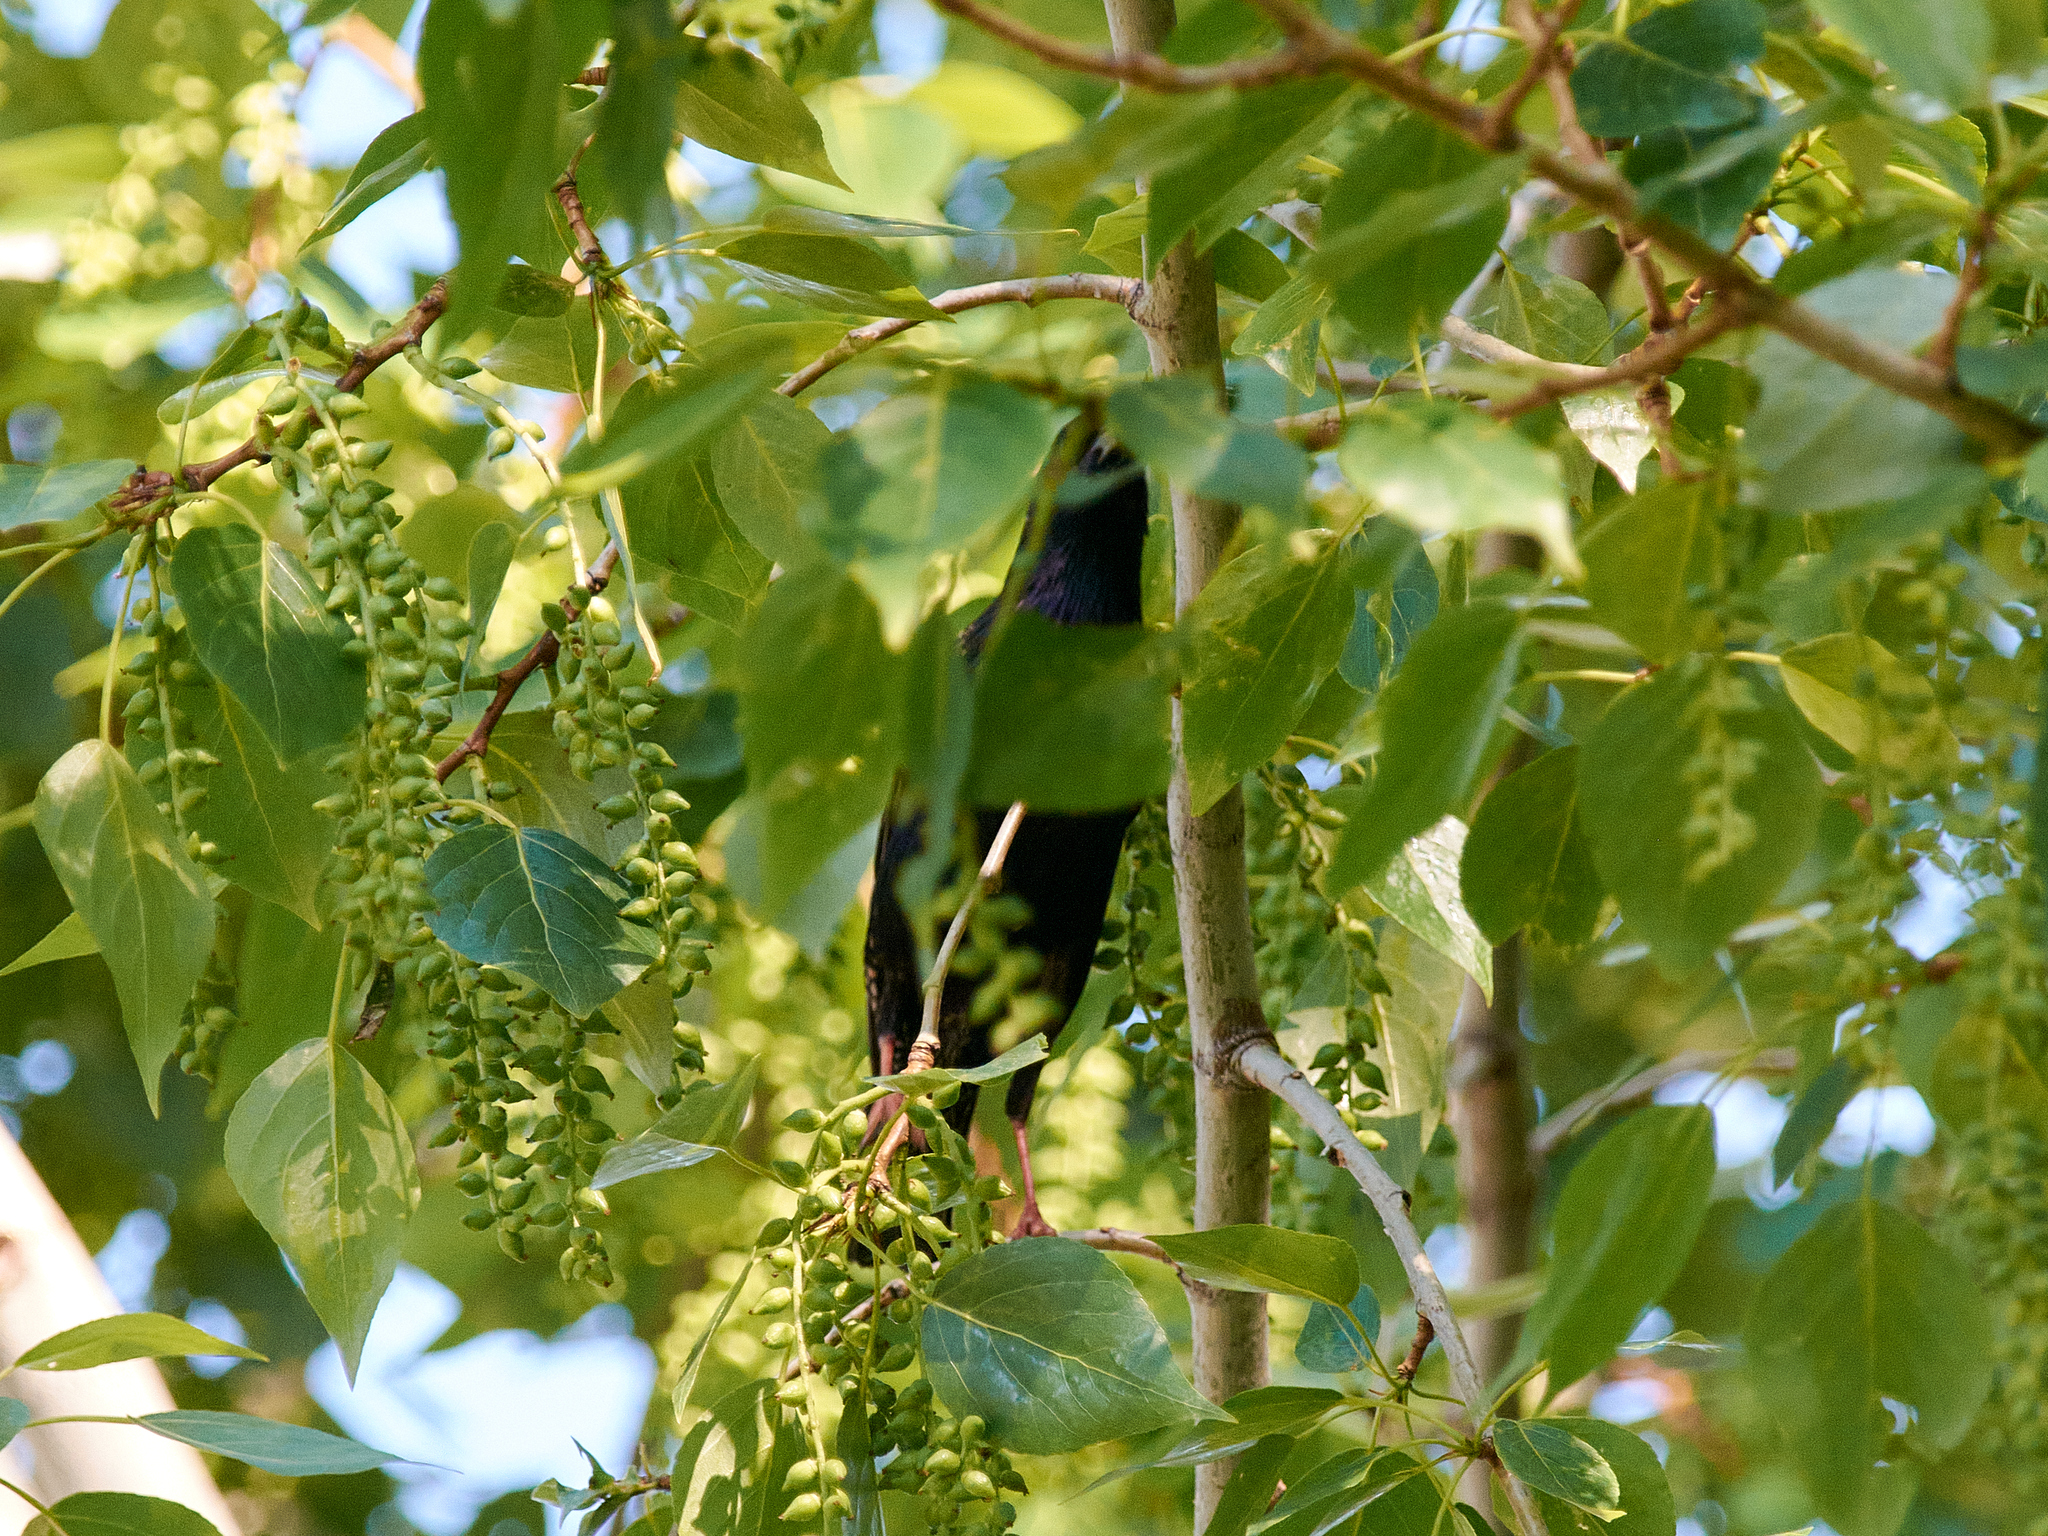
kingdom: Animalia
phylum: Chordata
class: Aves
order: Passeriformes
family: Sturnidae
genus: Sturnus
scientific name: Sturnus vulgaris
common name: Common starling
